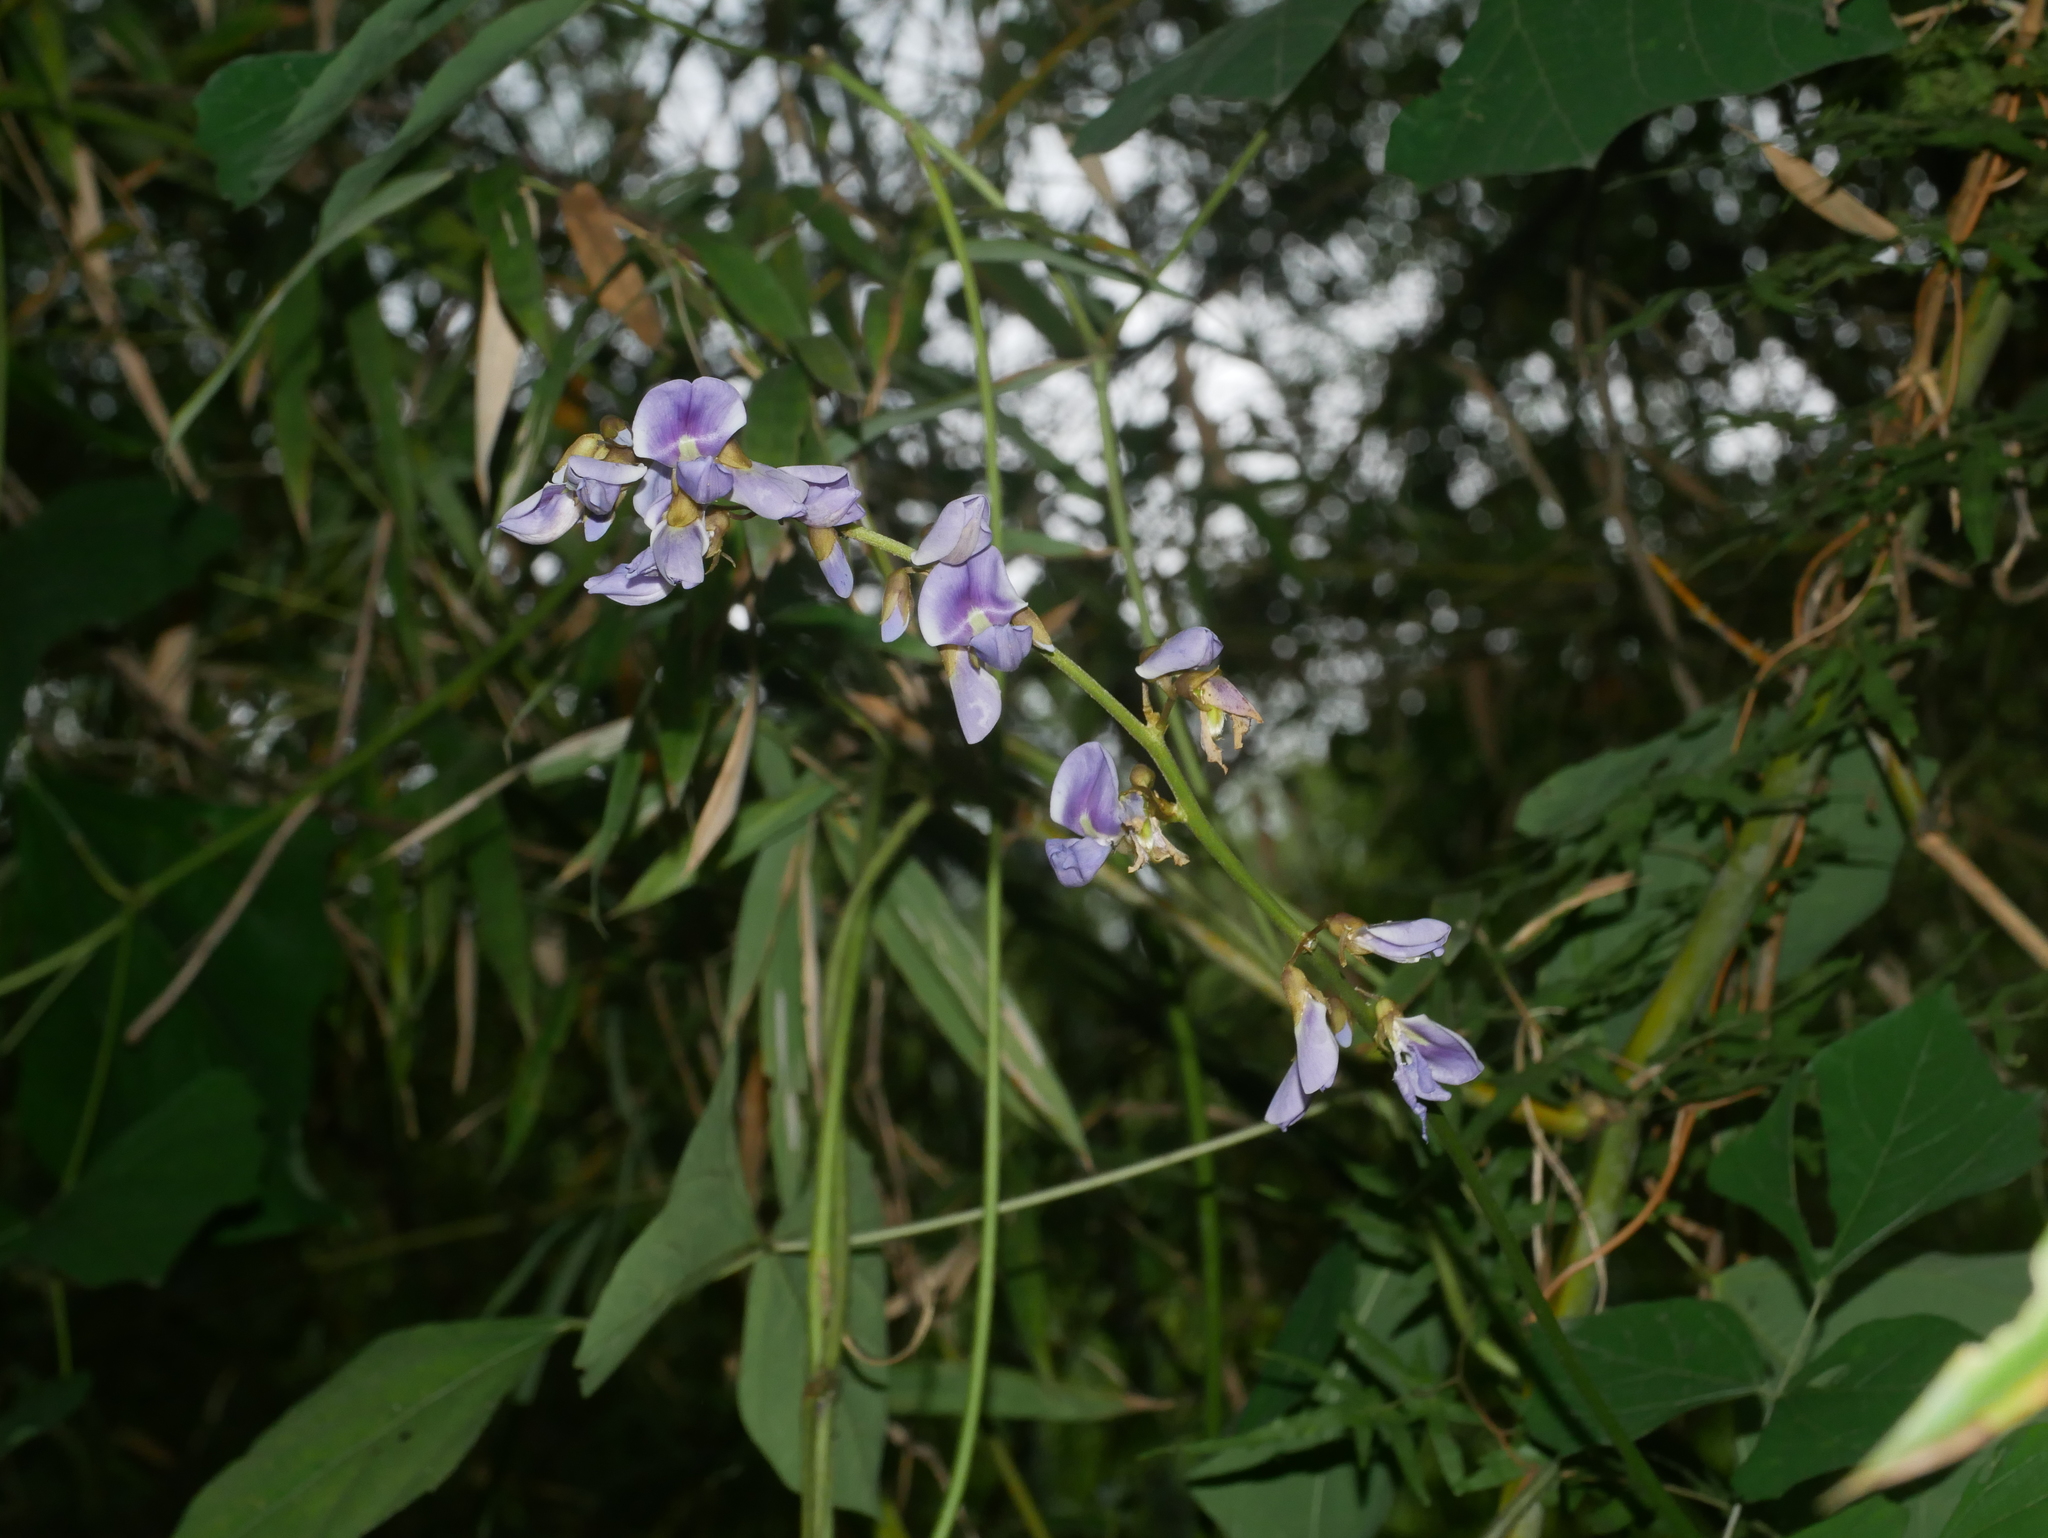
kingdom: Plantae
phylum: Tracheophyta
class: Magnoliopsida
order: Fabales
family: Fabaceae
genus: Pachyrhizus
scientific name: Pachyrhizus erosus
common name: Yam bean
